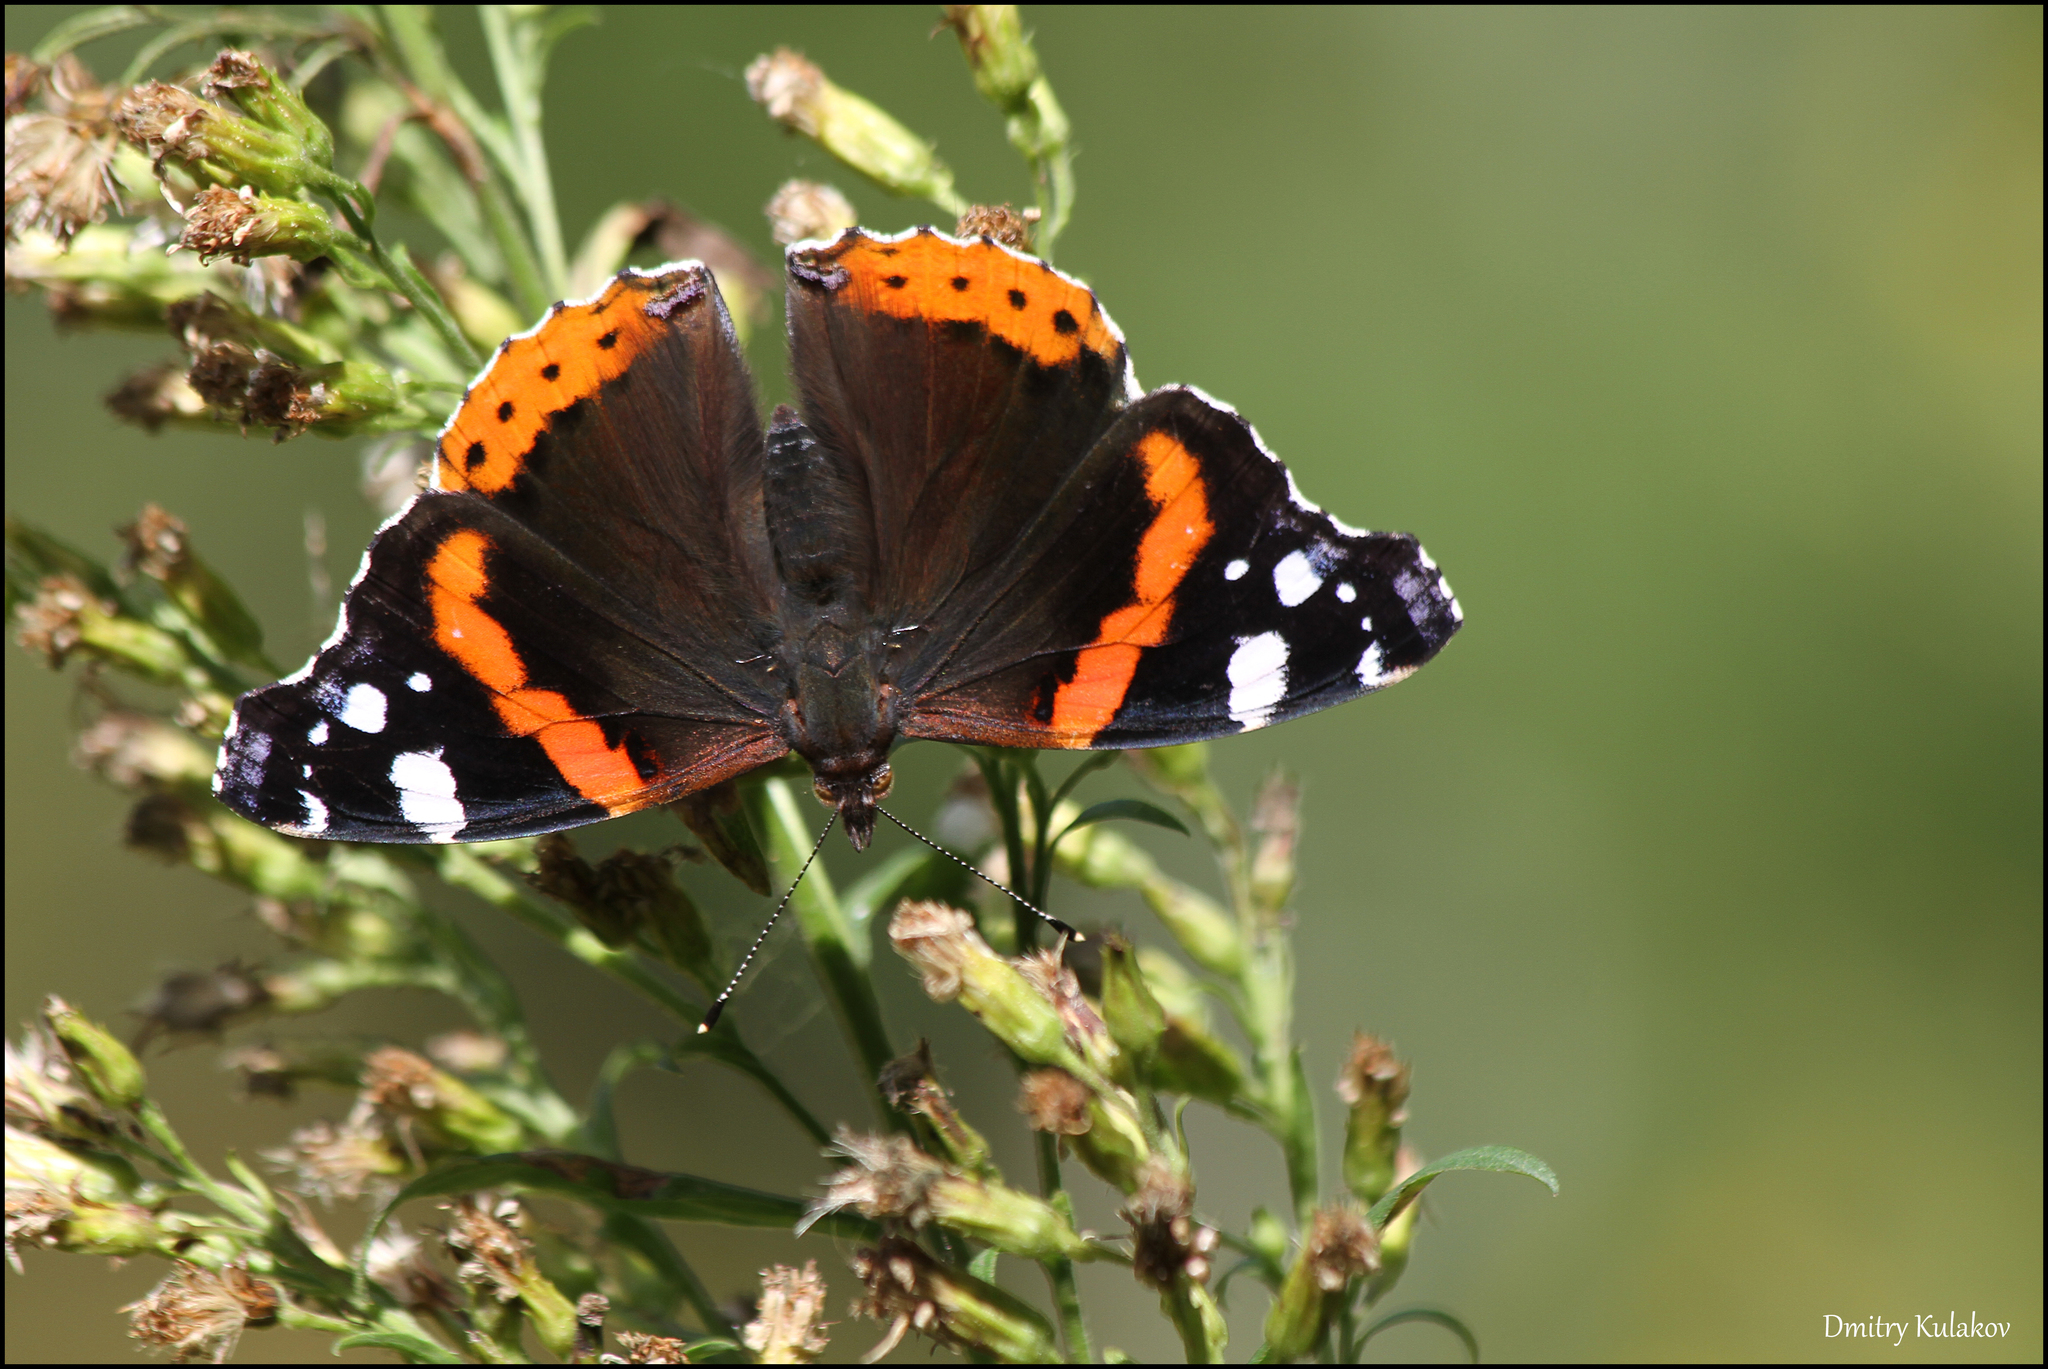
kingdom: Animalia
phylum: Arthropoda
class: Insecta
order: Lepidoptera
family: Nymphalidae
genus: Vanessa
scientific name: Vanessa atalanta
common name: Red admiral
